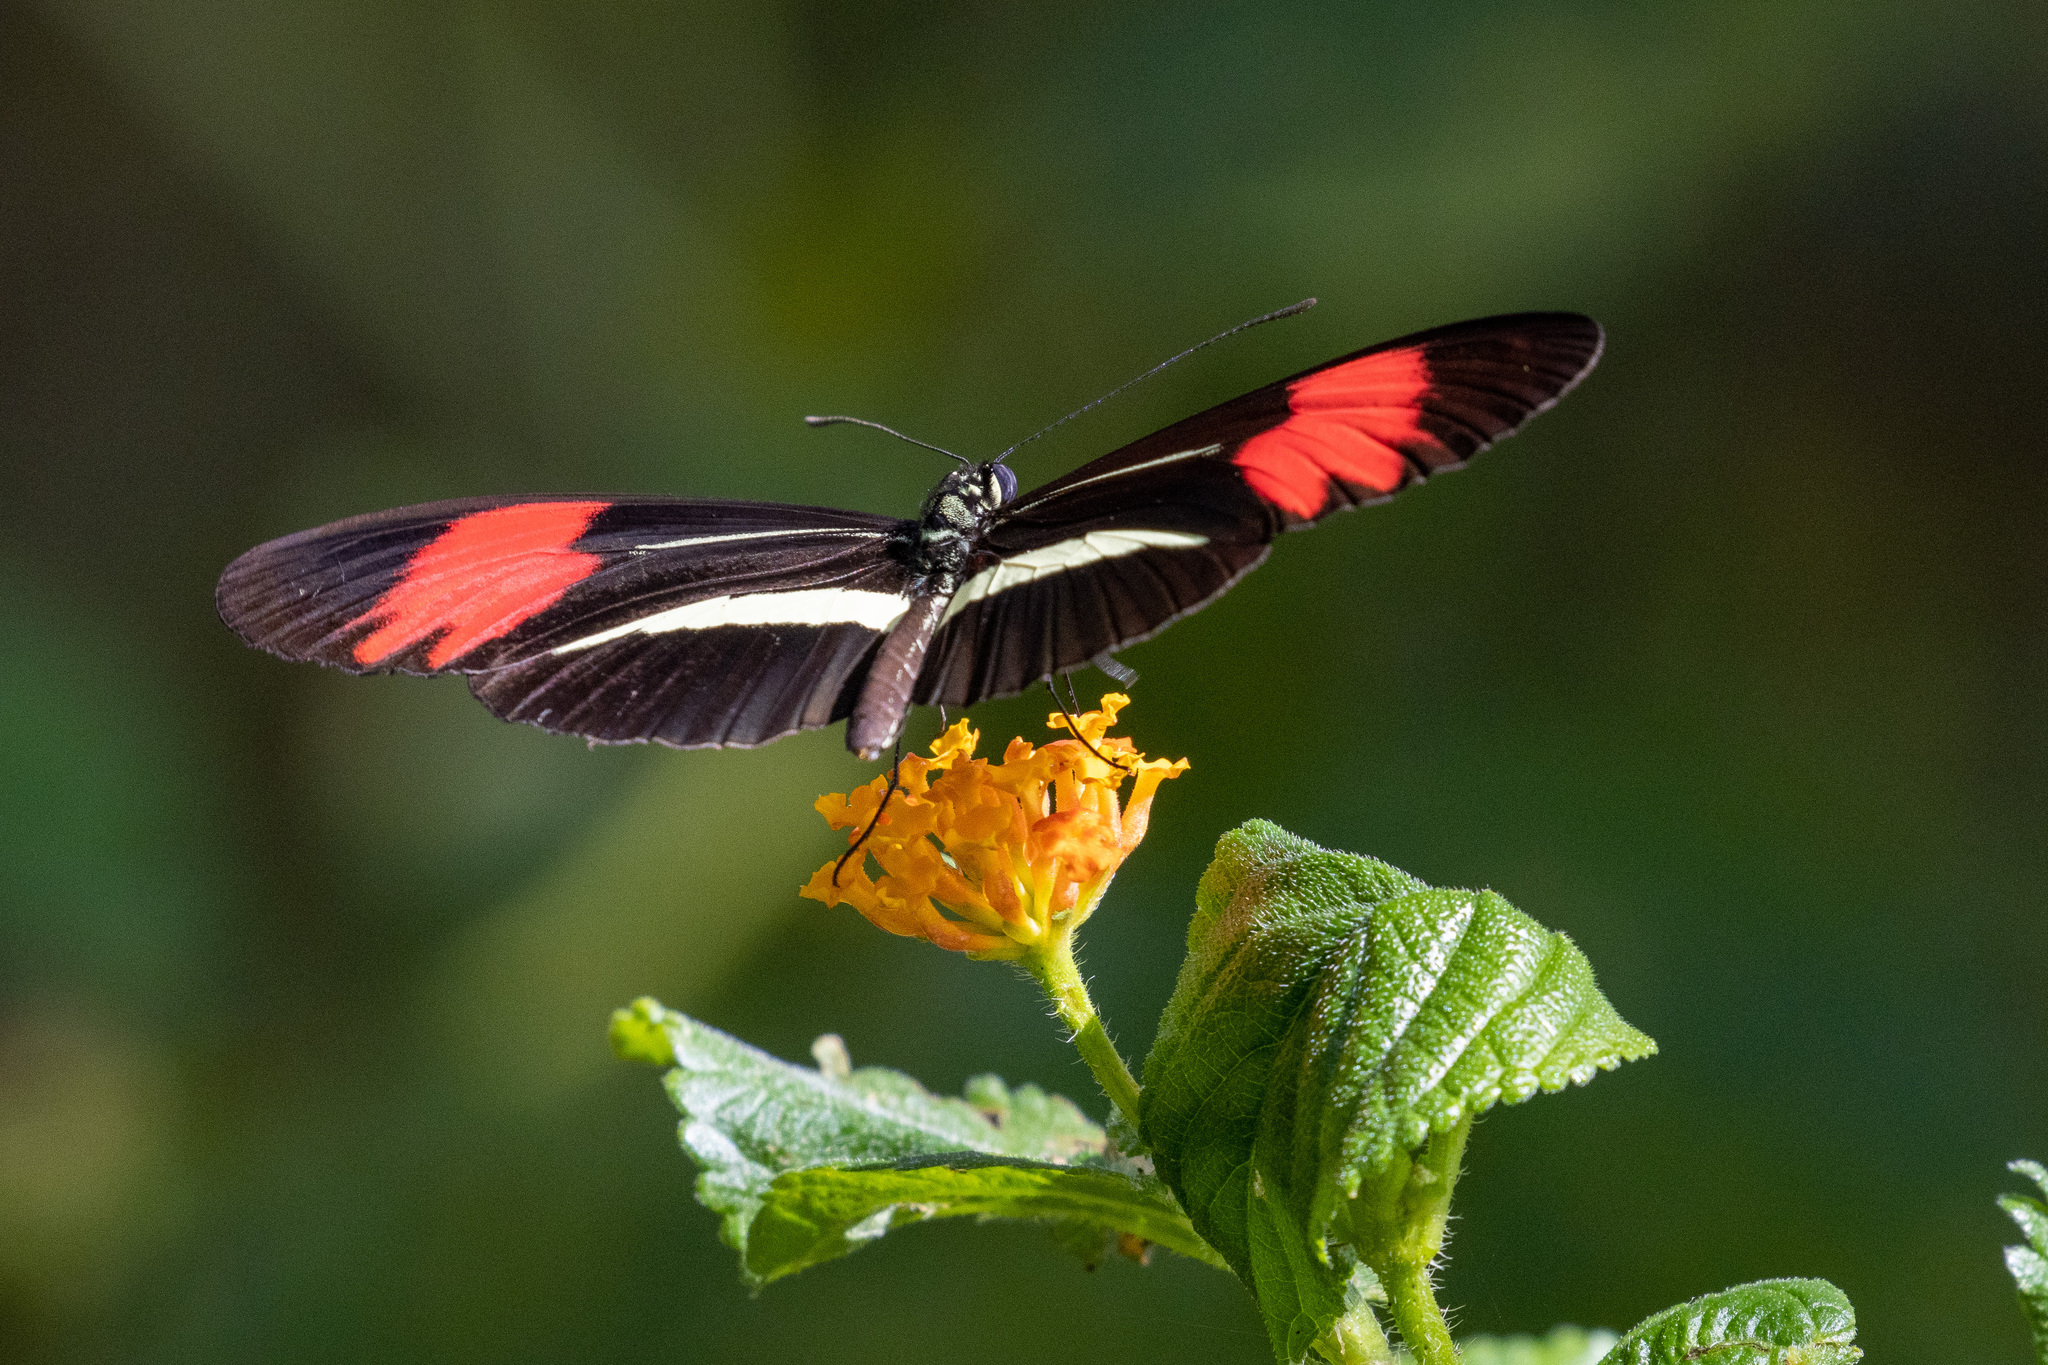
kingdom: Animalia
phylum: Arthropoda
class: Insecta
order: Lepidoptera
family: Nymphalidae
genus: Heliconius
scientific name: Heliconius melpomene
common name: Postman
